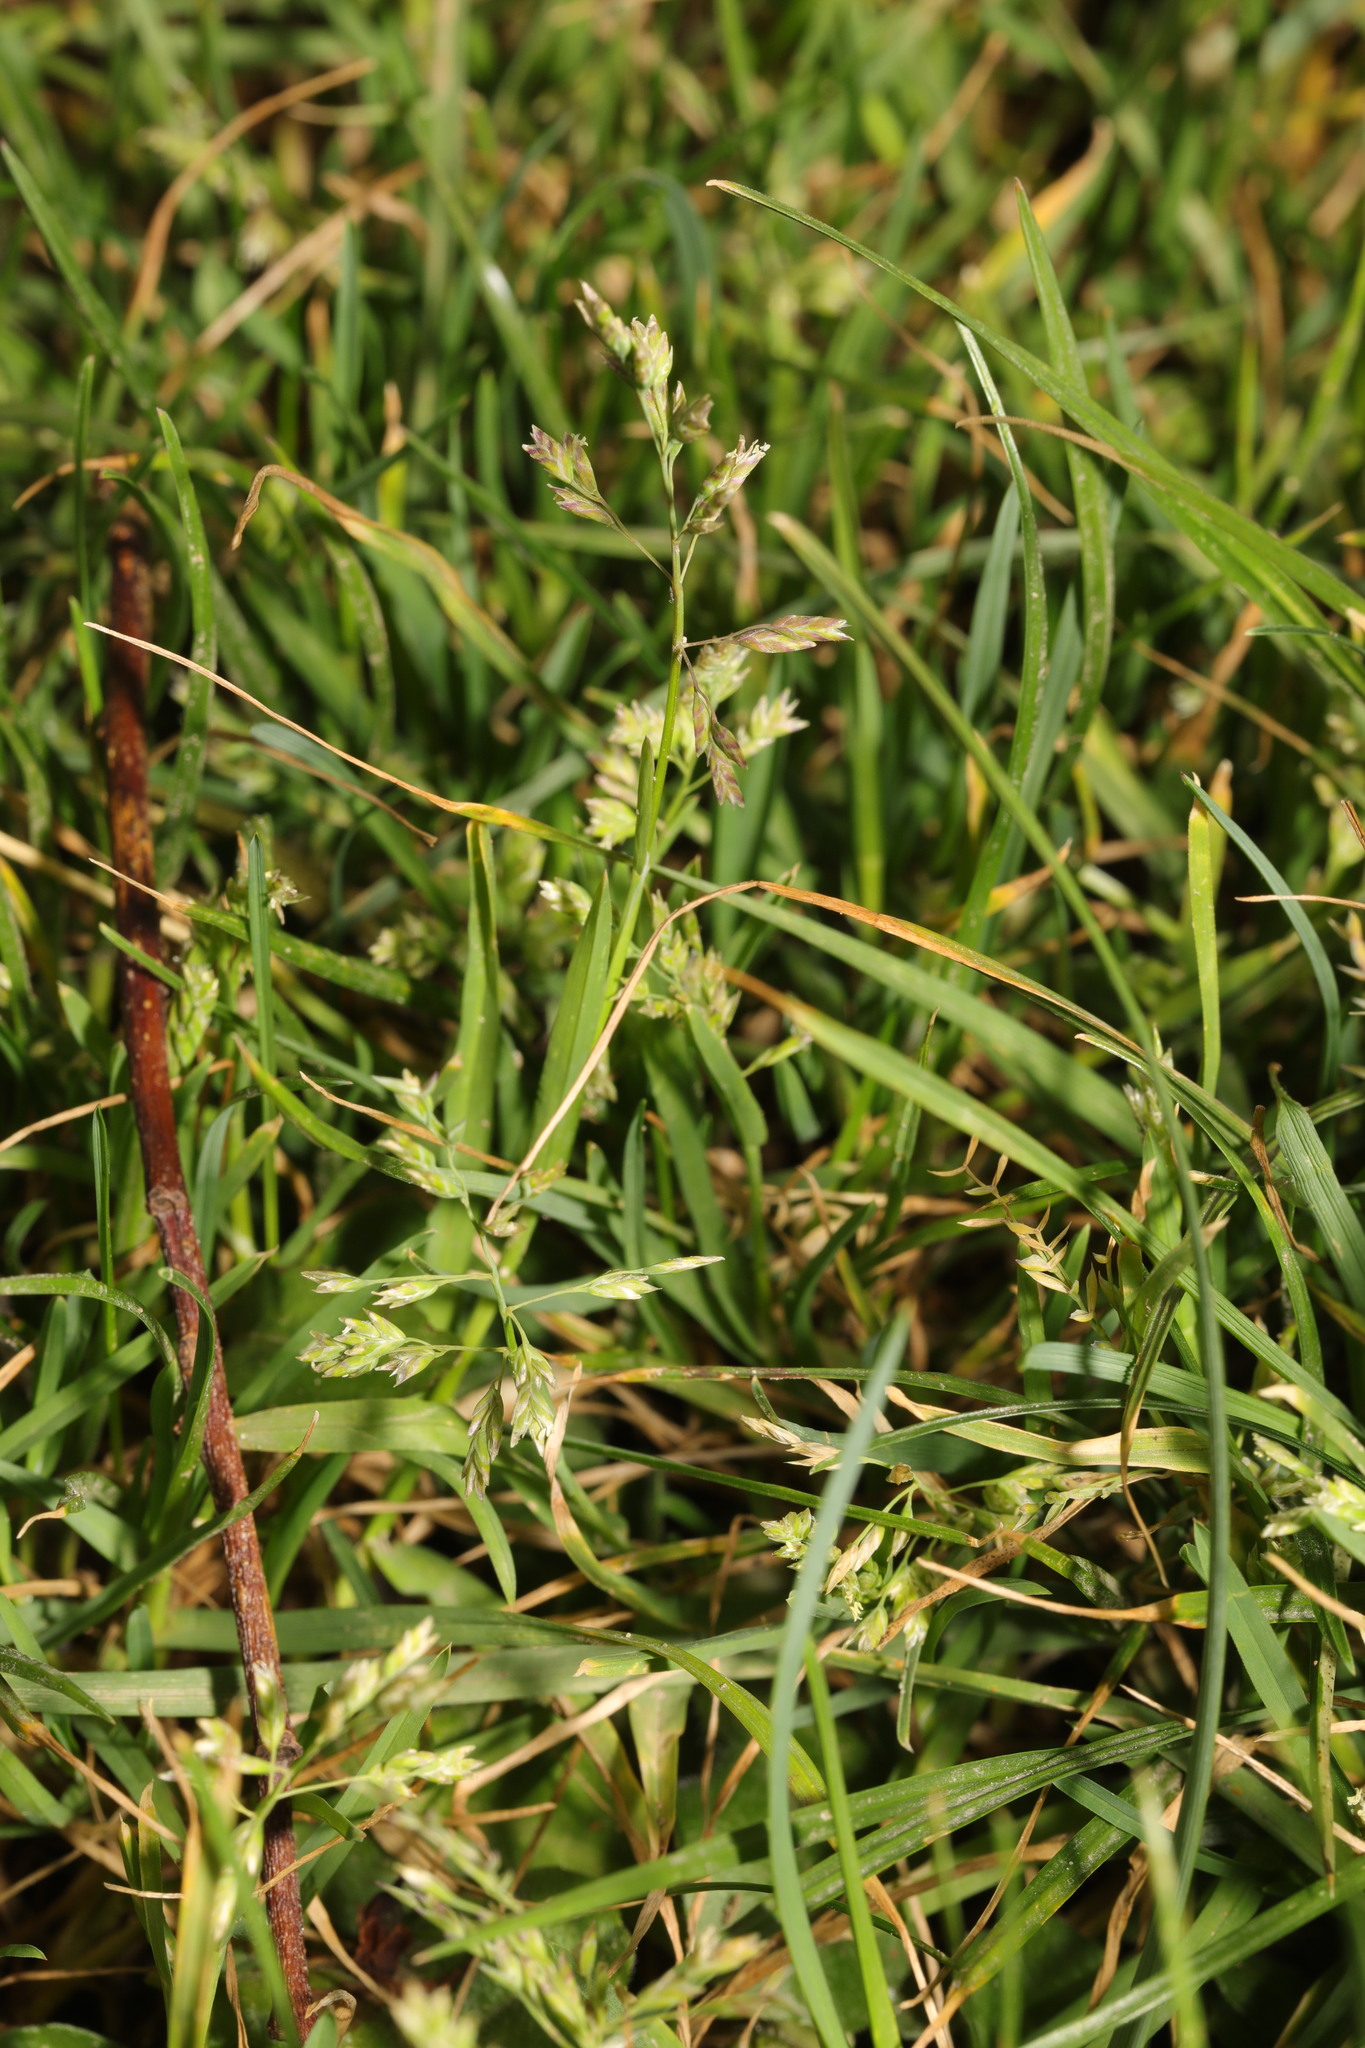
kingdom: Plantae
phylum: Tracheophyta
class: Liliopsida
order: Poales
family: Poaceae
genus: Poa
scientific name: Poa annua
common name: Annual bluegrass
